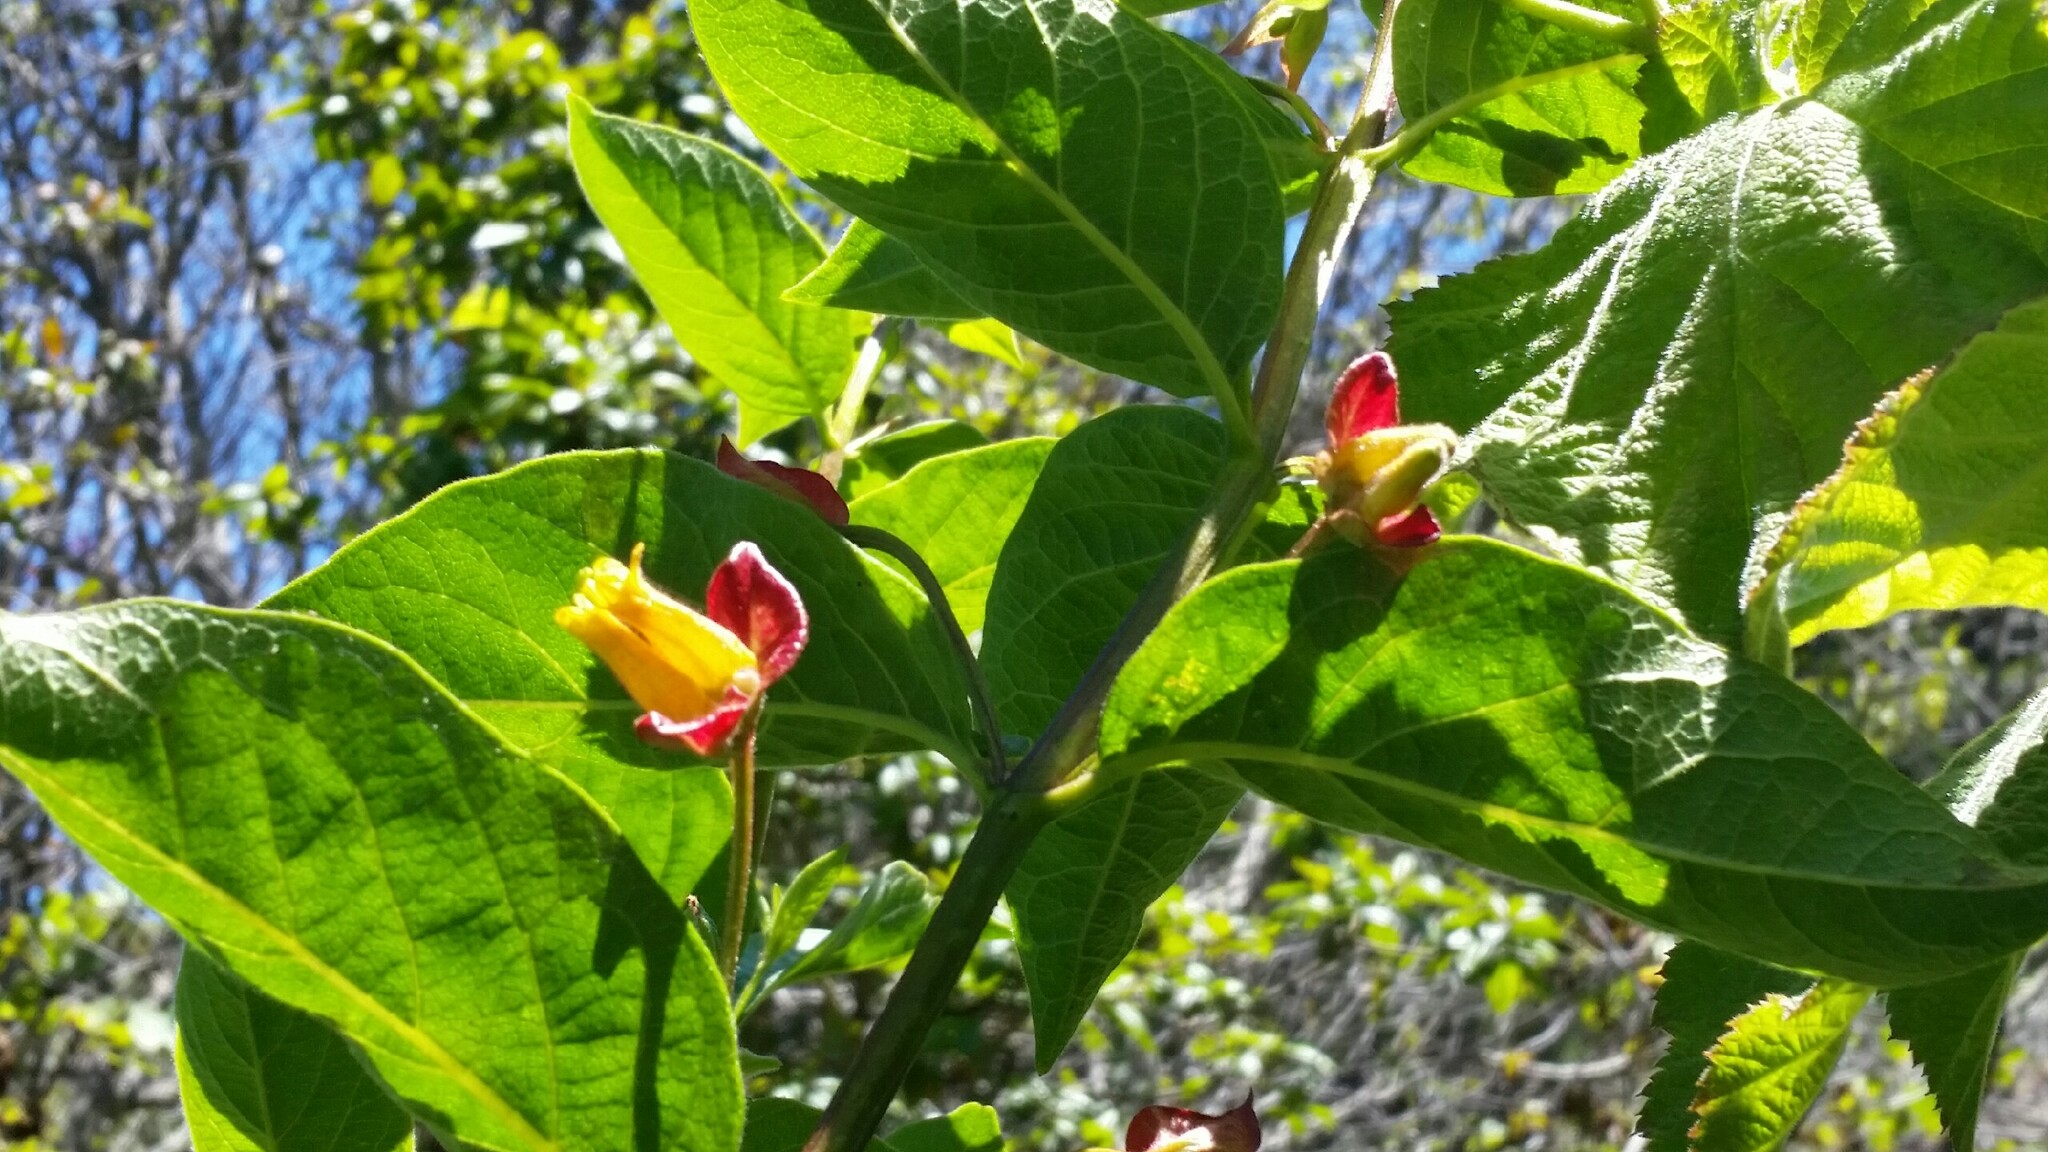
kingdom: Plantae
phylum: Tracheophyta
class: Magnoliopsida
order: Dipsacales
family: Caprifoliaceae
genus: Lonicera
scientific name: Lonicera involucrata
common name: Californian honeysuckle
